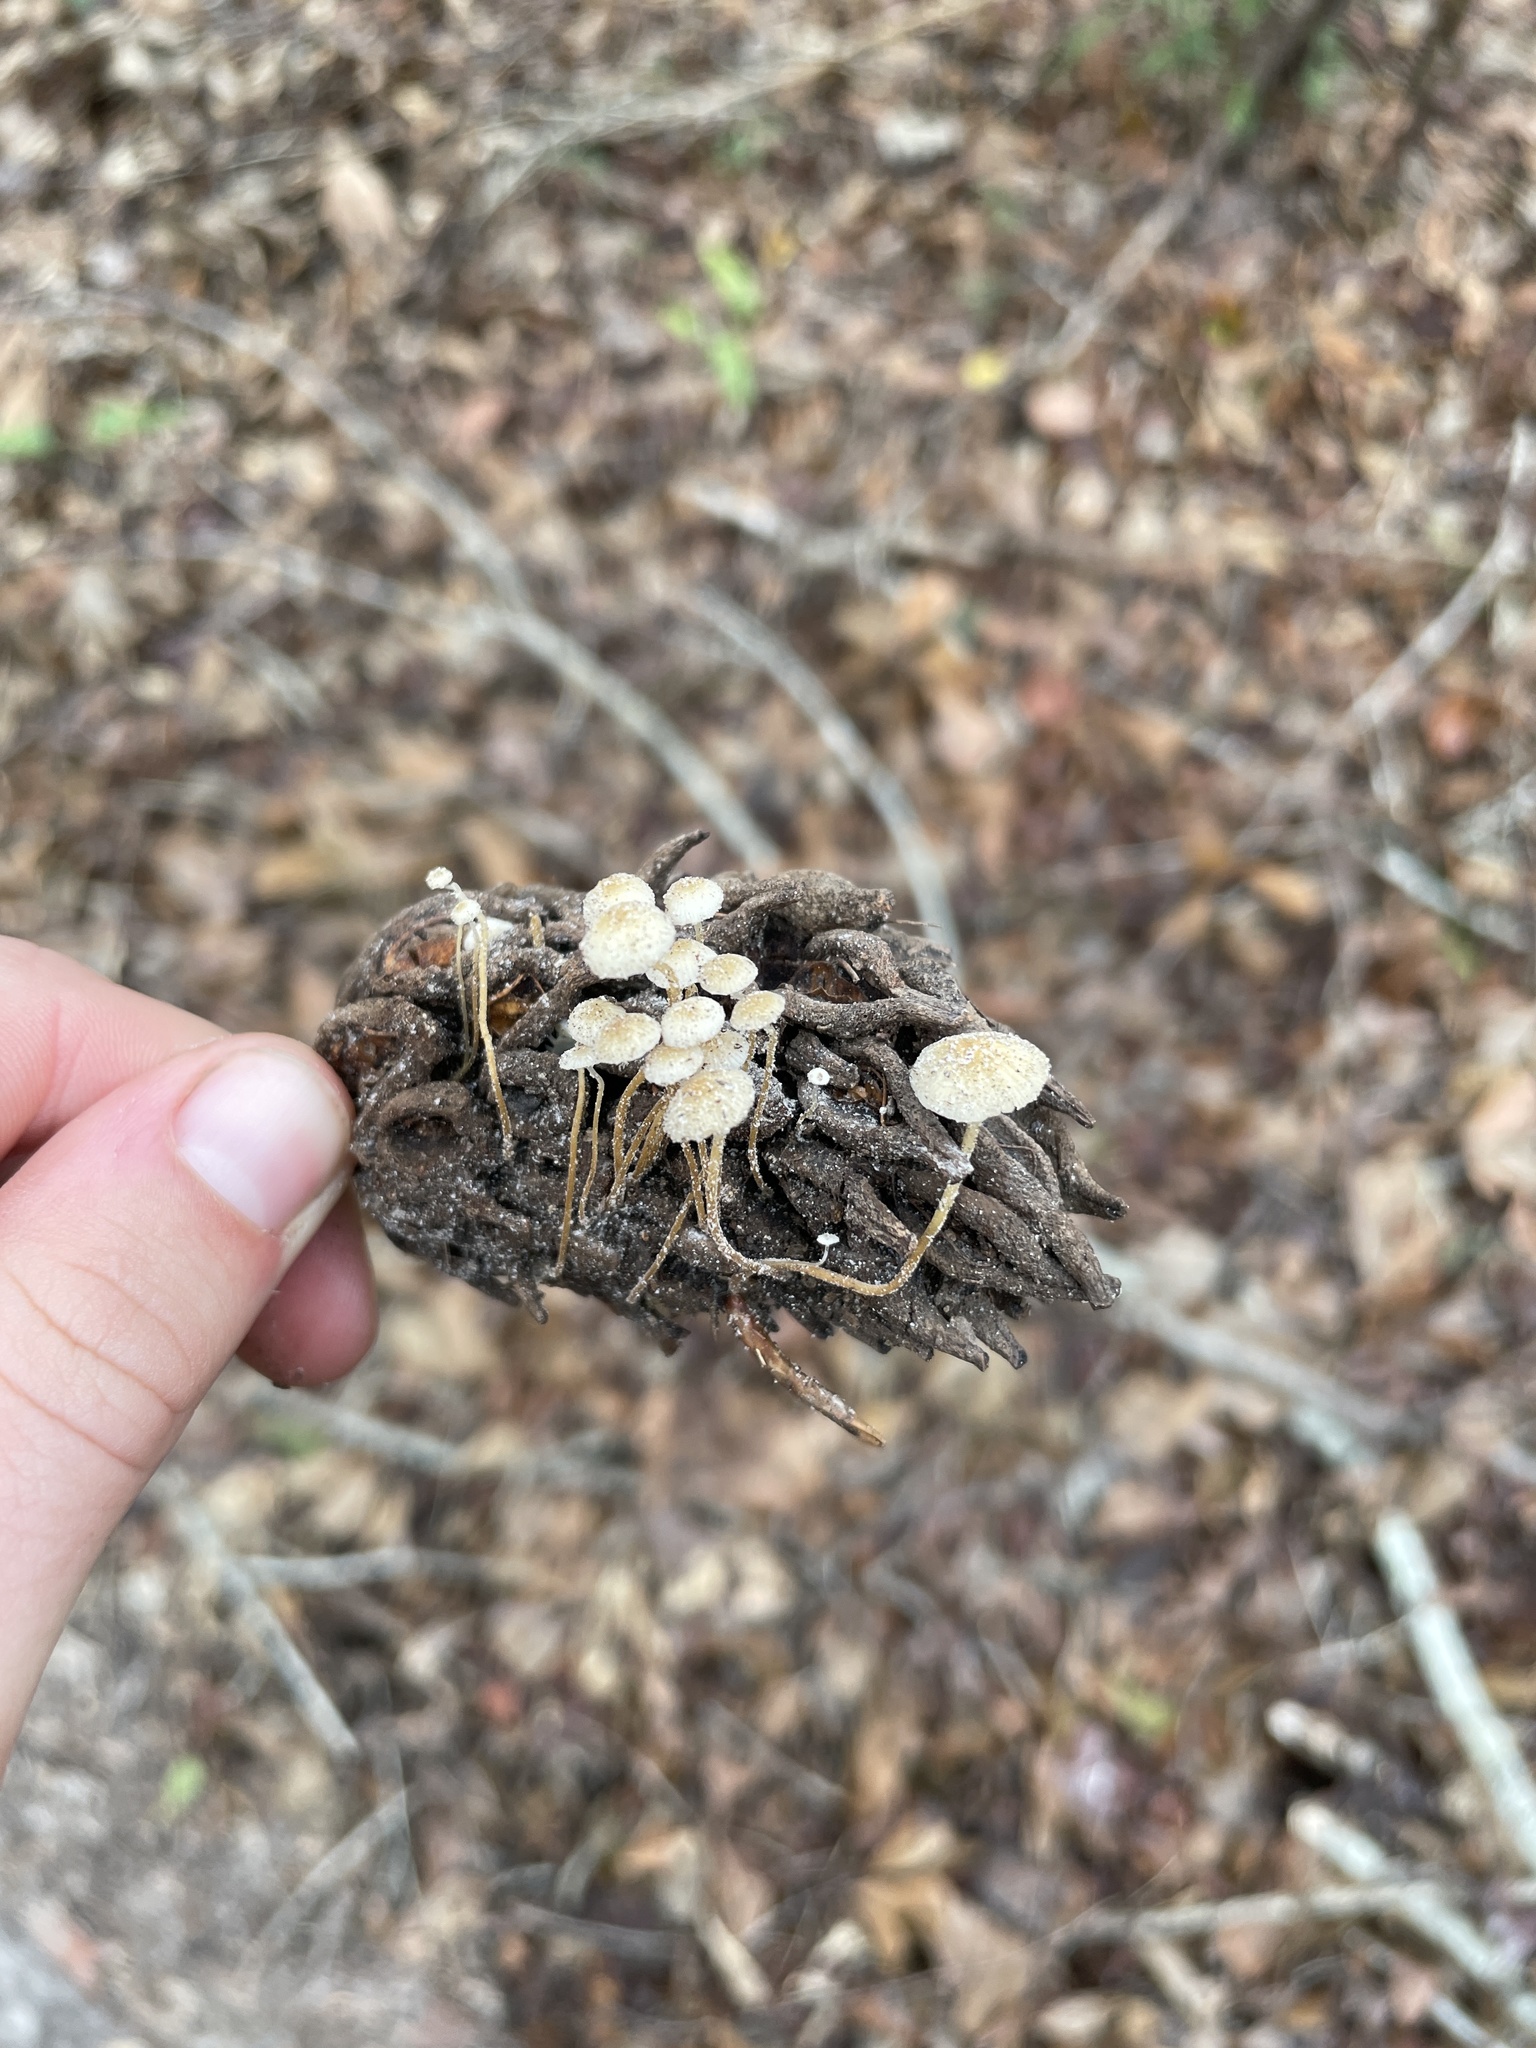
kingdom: Fungi
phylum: Basidiomycota
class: Agaricomycetes
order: Agaricales
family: Physalacriaceae
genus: Strobilurus
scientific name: Strobilurus conigenoides
